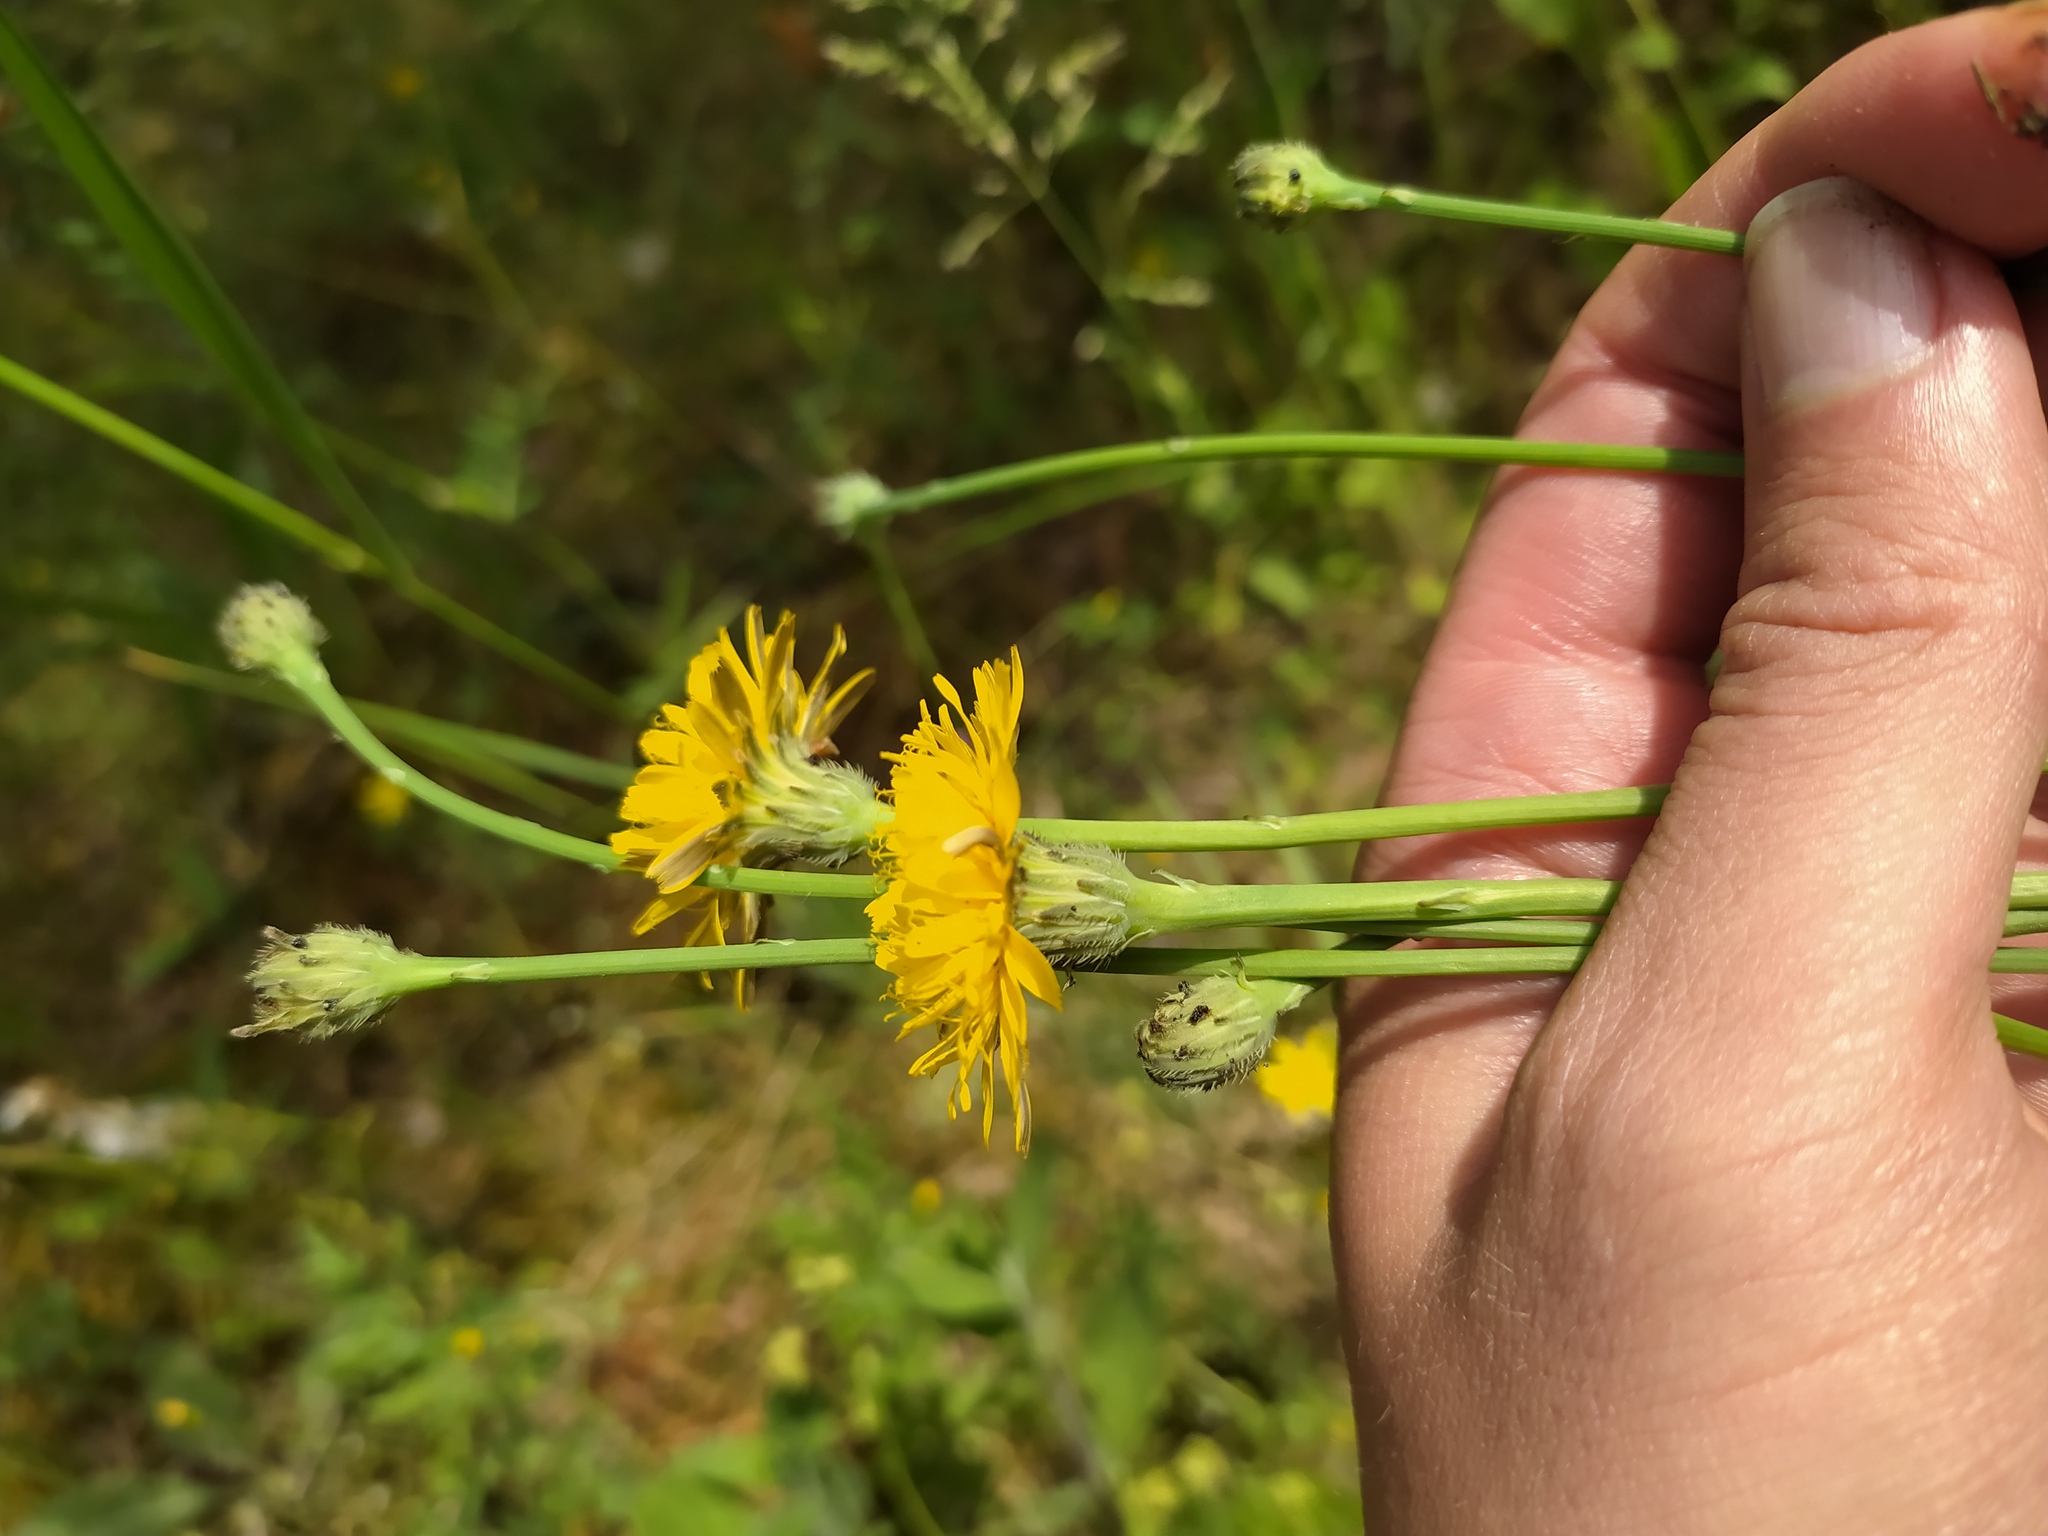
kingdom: Plantae
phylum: Tracheophyta
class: Magnoliopsida
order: Asterales
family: Asteraceae
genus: Hypochaeris
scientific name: Hypochaeris radicata
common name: Flatweed
